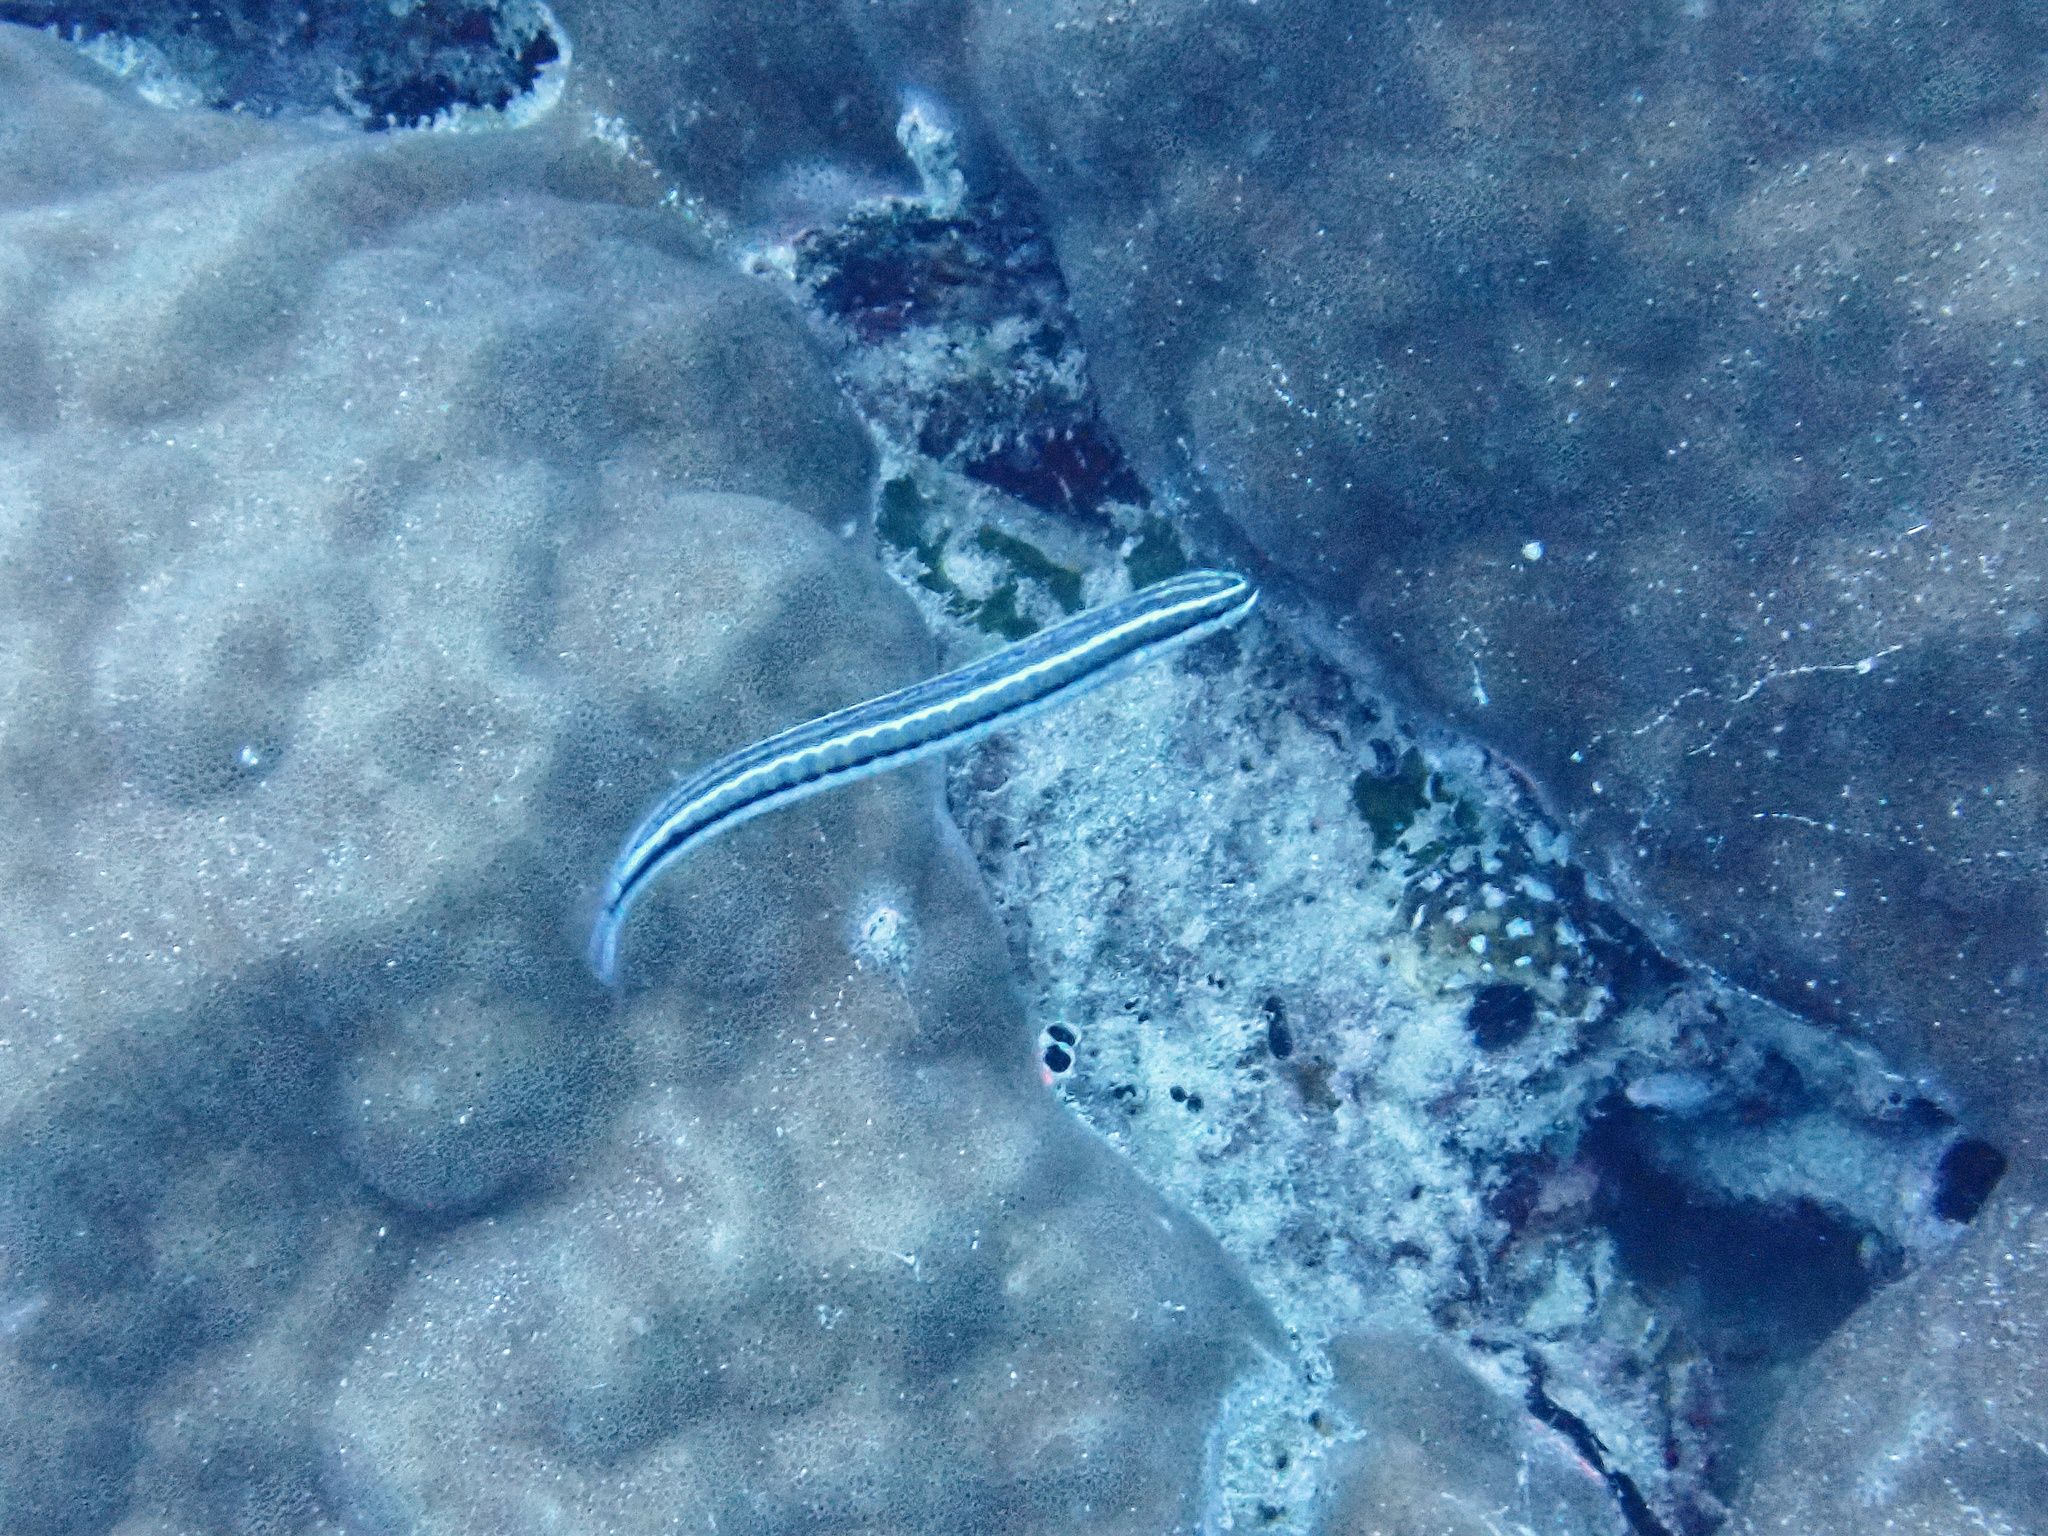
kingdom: Animalia
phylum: Chordata
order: Perciformes
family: Blenniidae
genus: Plagiotremus
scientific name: Plagiotremus tapeinosoma
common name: Hit and run blenny
